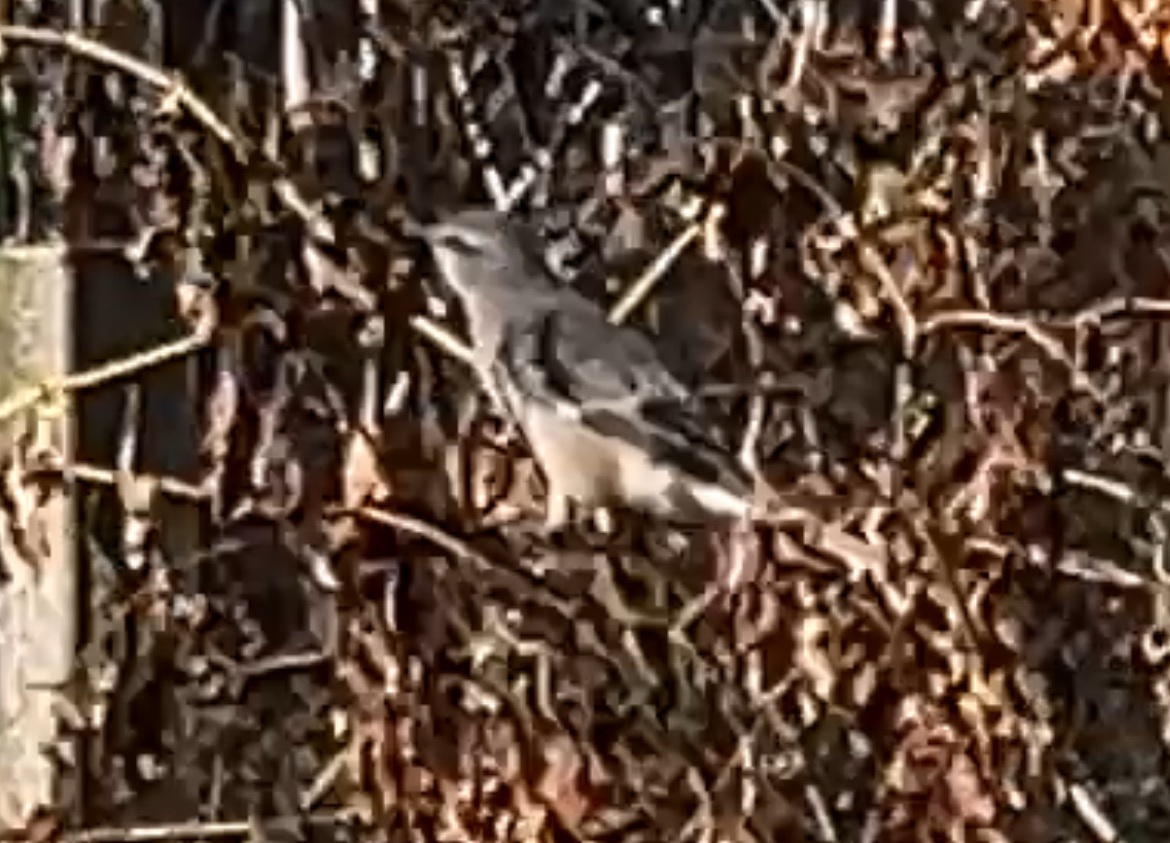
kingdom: Animalia
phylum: Chordata
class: Aves
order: Passeriformes
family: Mimidae
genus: Mimus
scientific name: Mimus polyglottos
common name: Northern mockingbird
